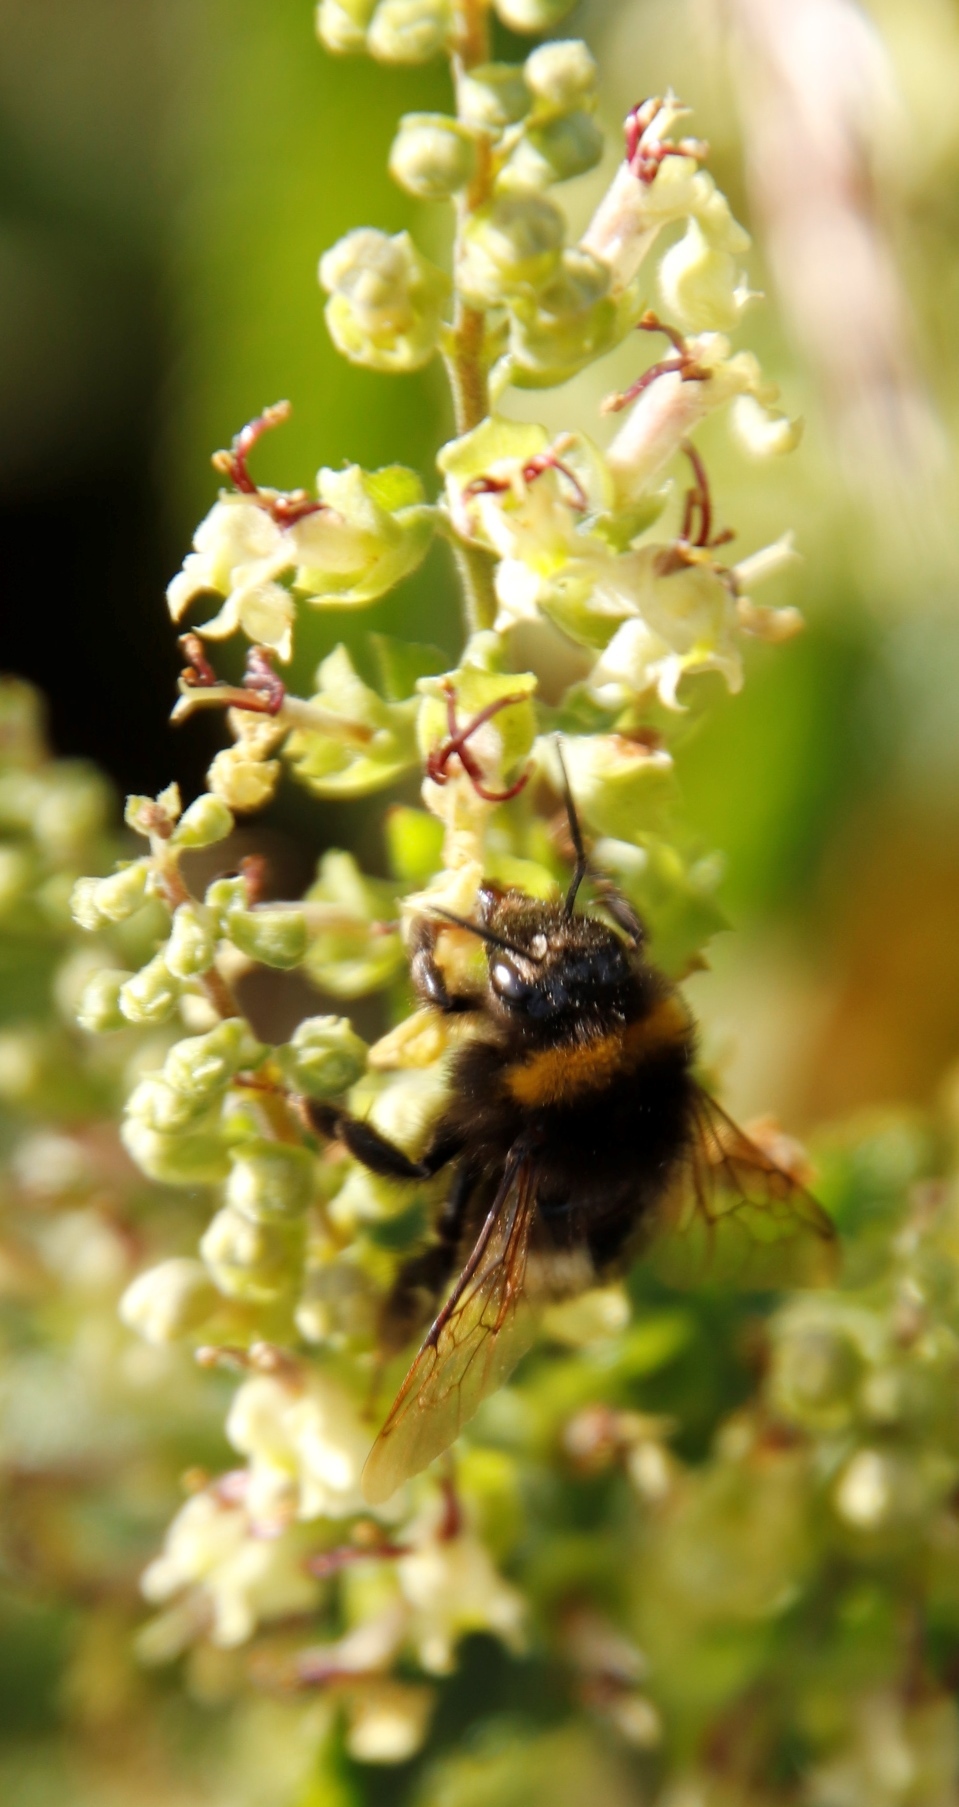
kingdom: Plantae
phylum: Tracheophyta
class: Magnoliopsida
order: Lamiales
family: Lamiaceae
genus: Teucrium
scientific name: Teucrium scorodonia
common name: Woodland germander
